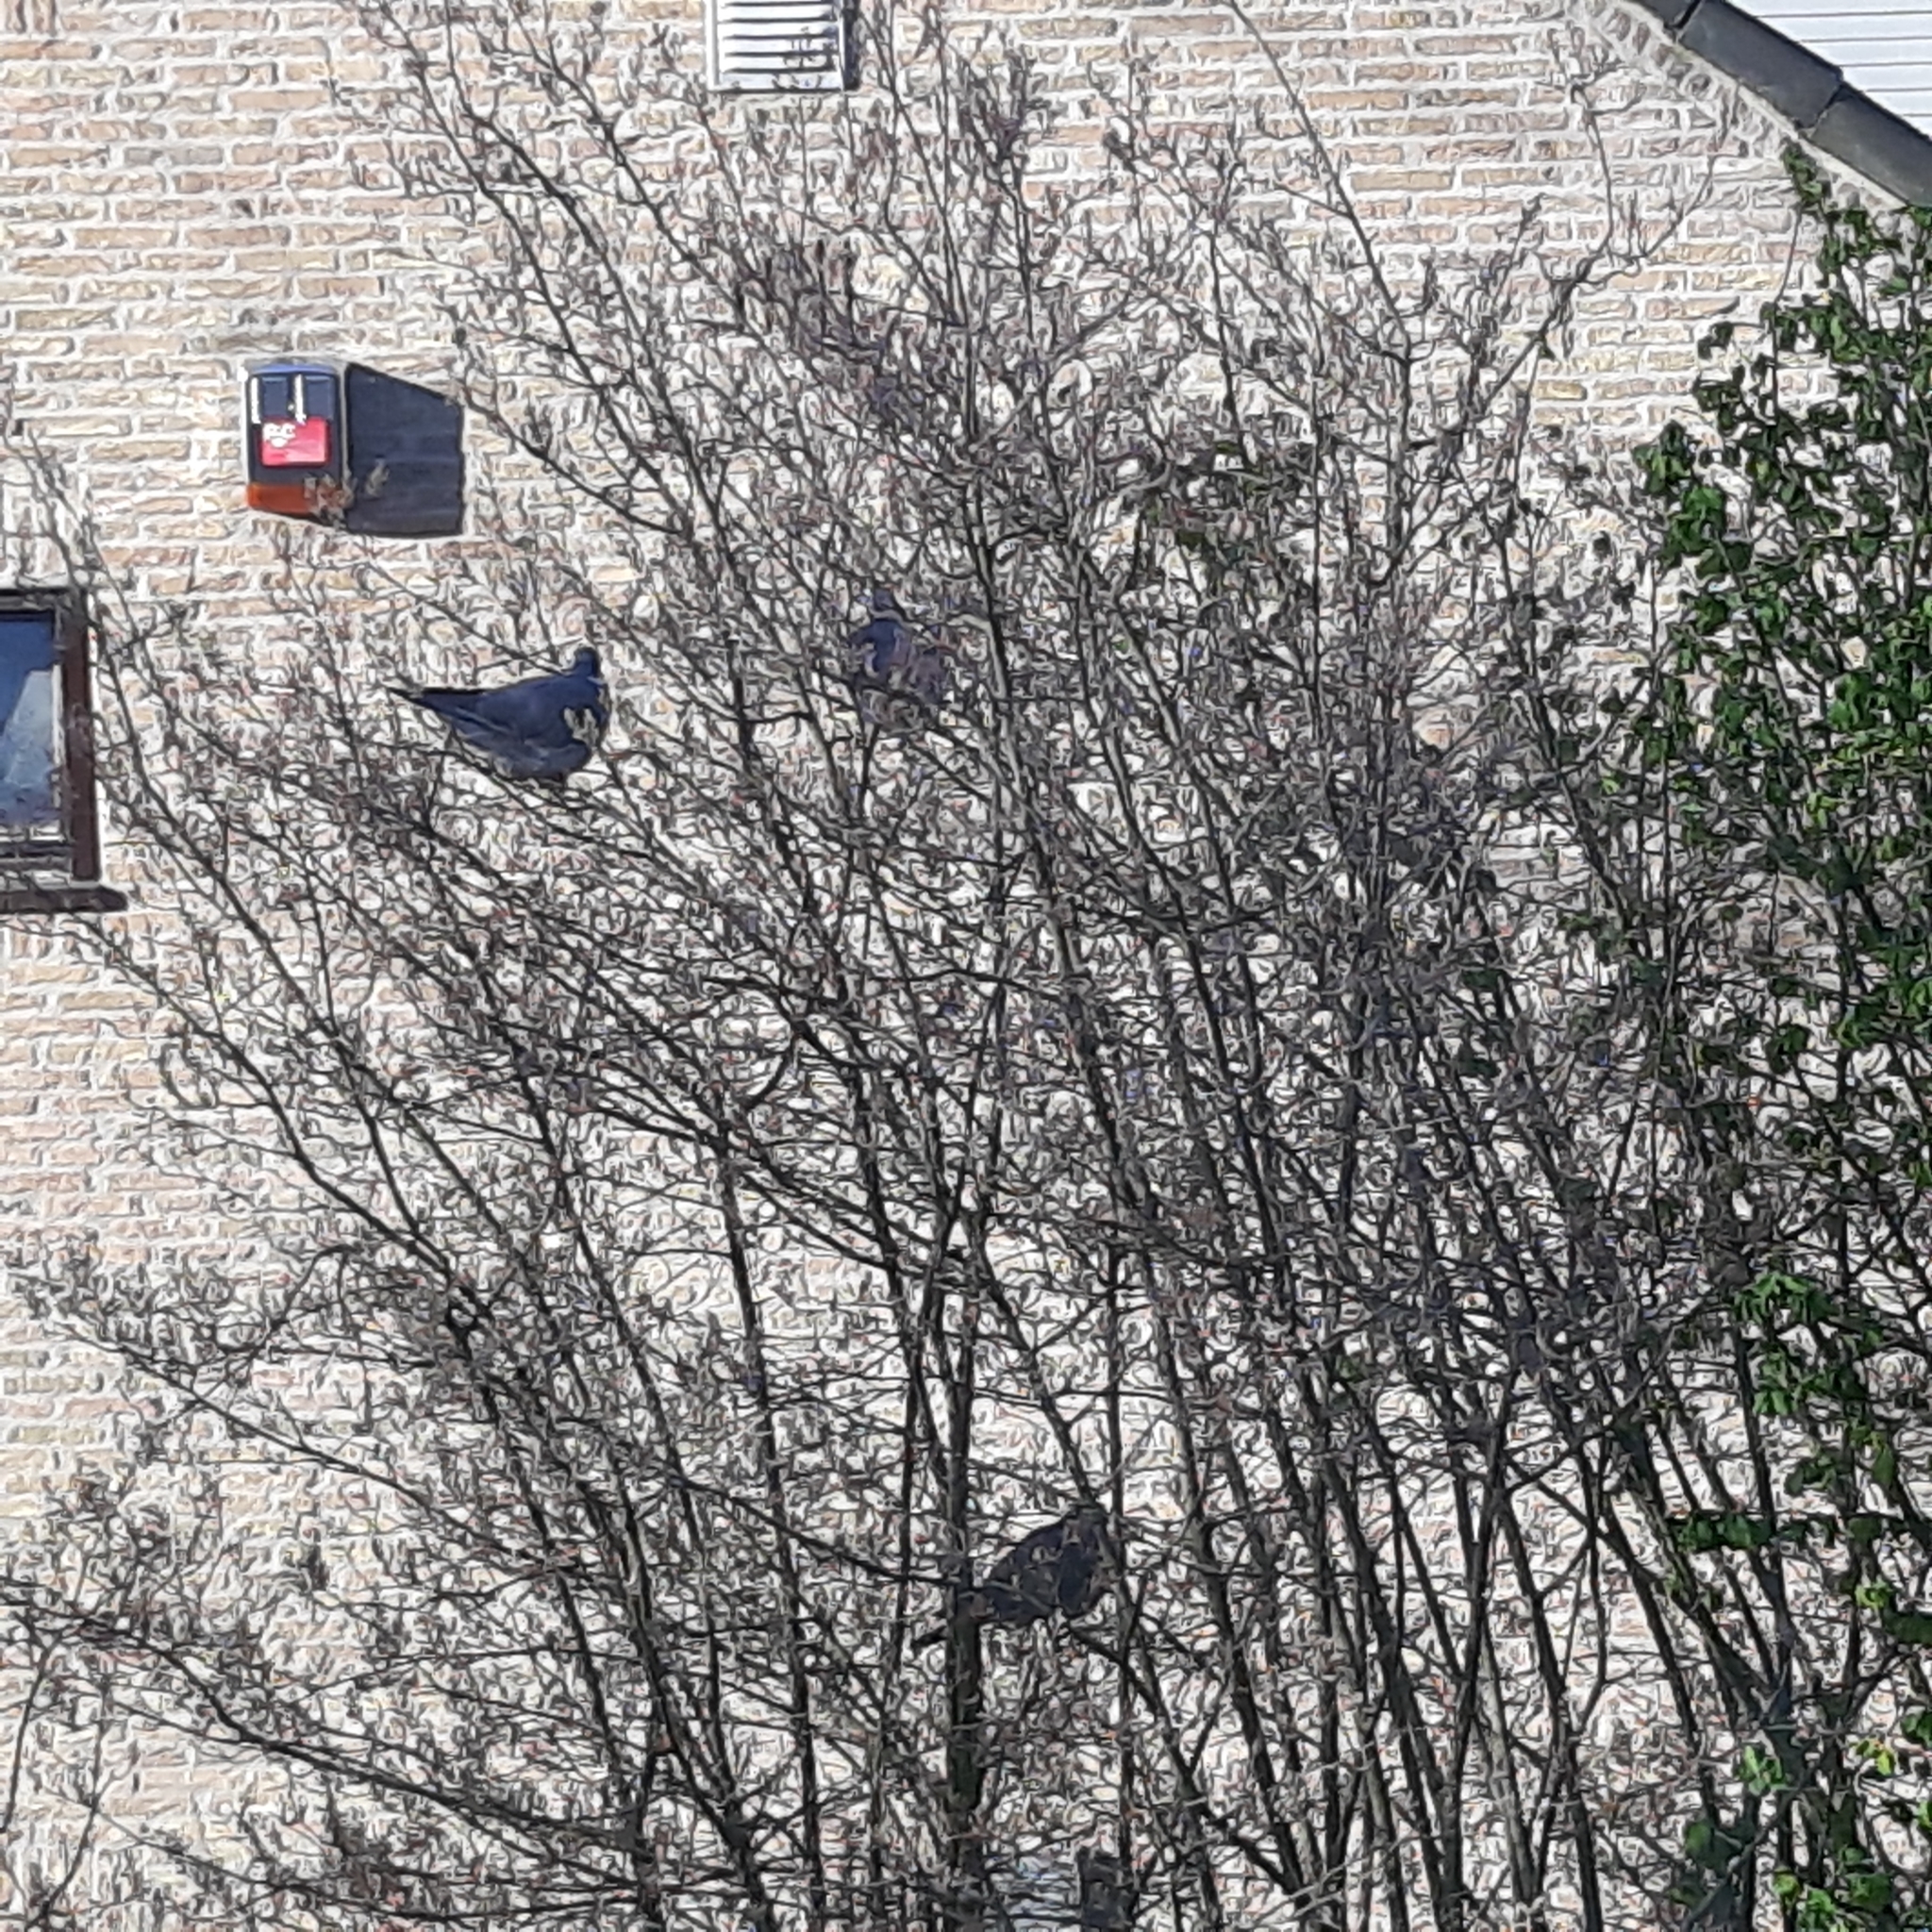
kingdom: Animalia
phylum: Chordata
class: Aves
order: Columbiformes
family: Columbidae
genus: Columba
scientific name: Columba palumbus
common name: Common wood pigeon
